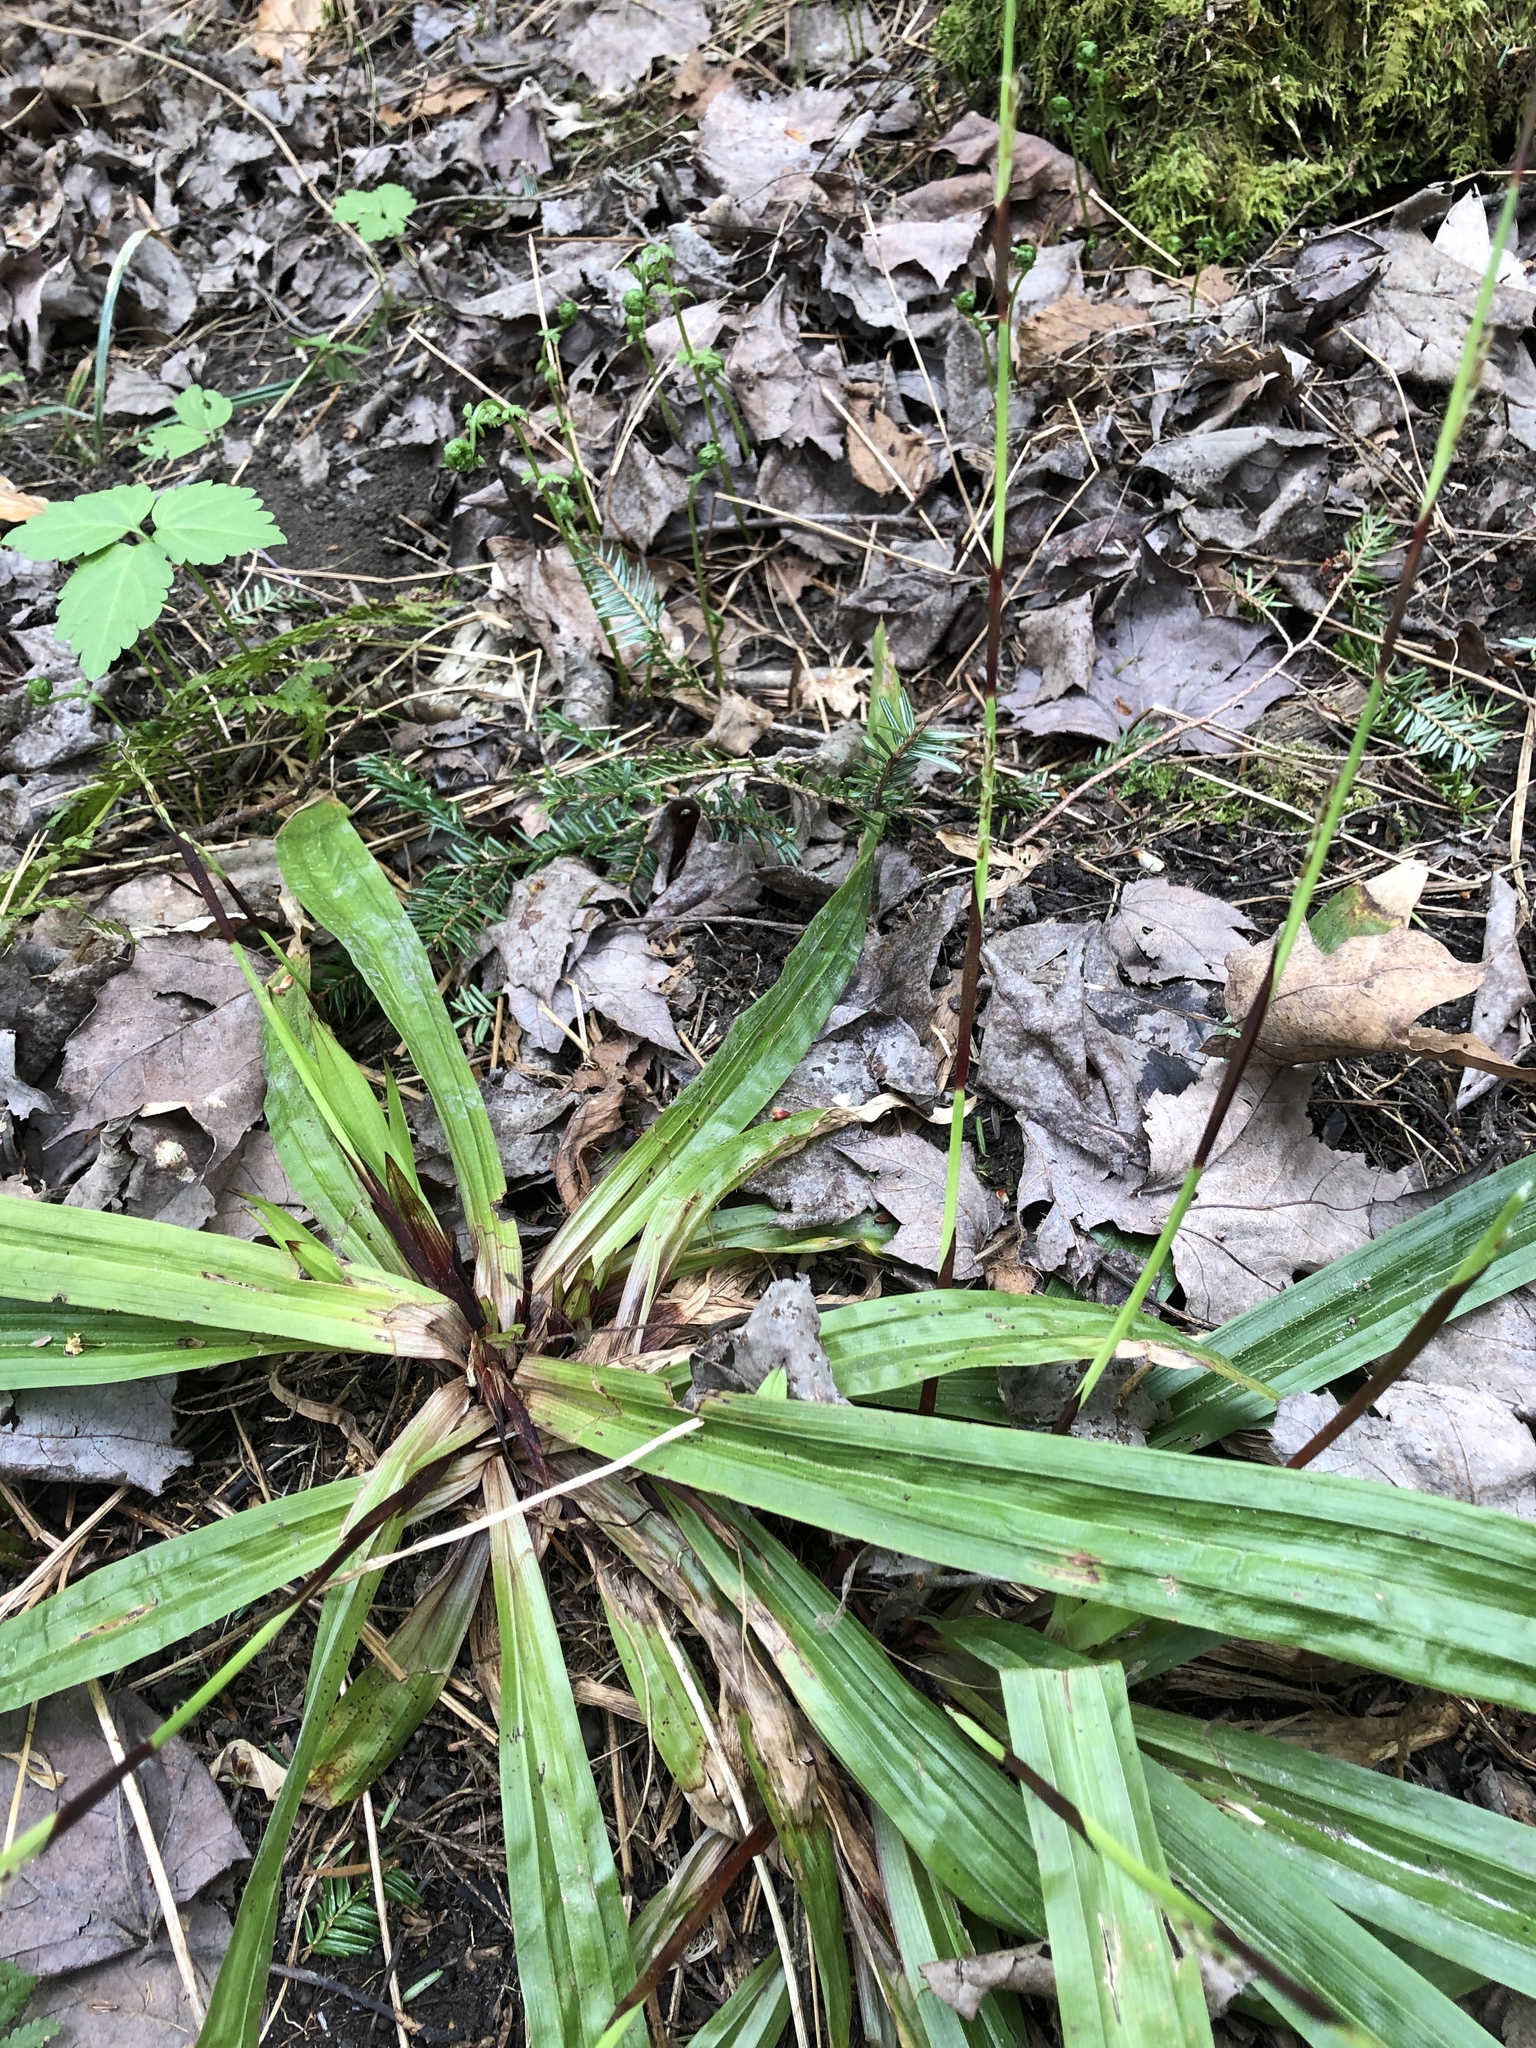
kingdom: Plantae
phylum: Tracheophyta
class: Liliopsida
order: Poales
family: Cyperaceae
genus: Carex
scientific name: Carex plantaginea
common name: Plantain-leaved sedge
